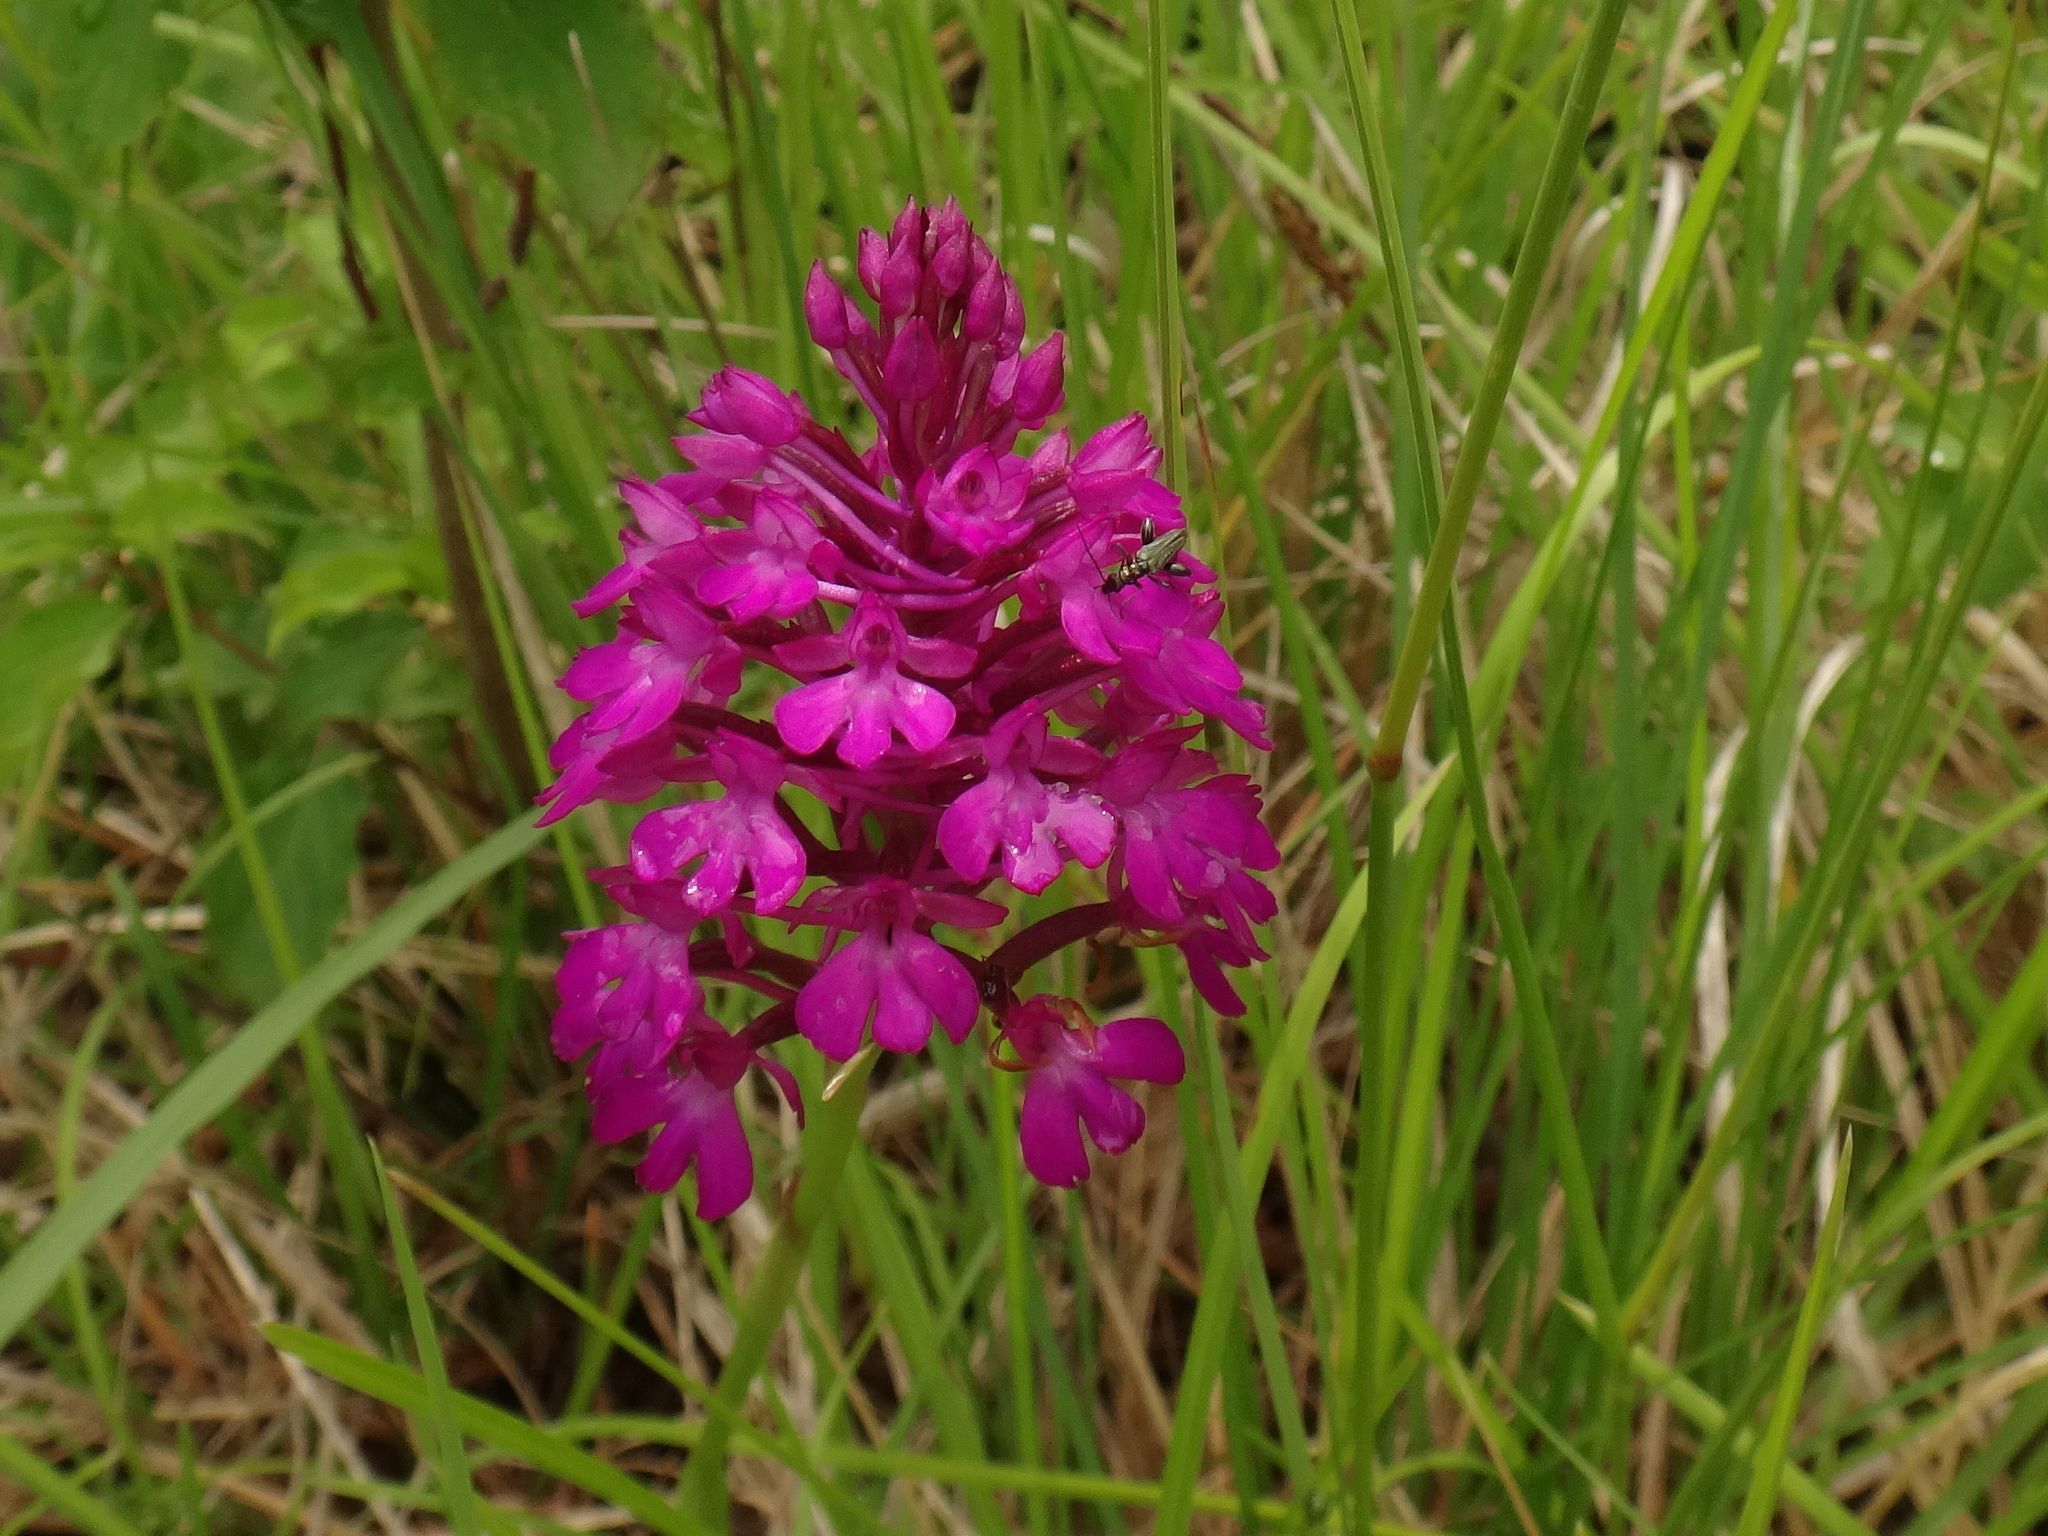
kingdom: Plantae
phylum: Tracheophyta
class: Liliopsida
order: Asparagales
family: Orchidaceae
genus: Anacamptis
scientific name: Anacamptis pyramidalis
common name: Pyramidal orchid
